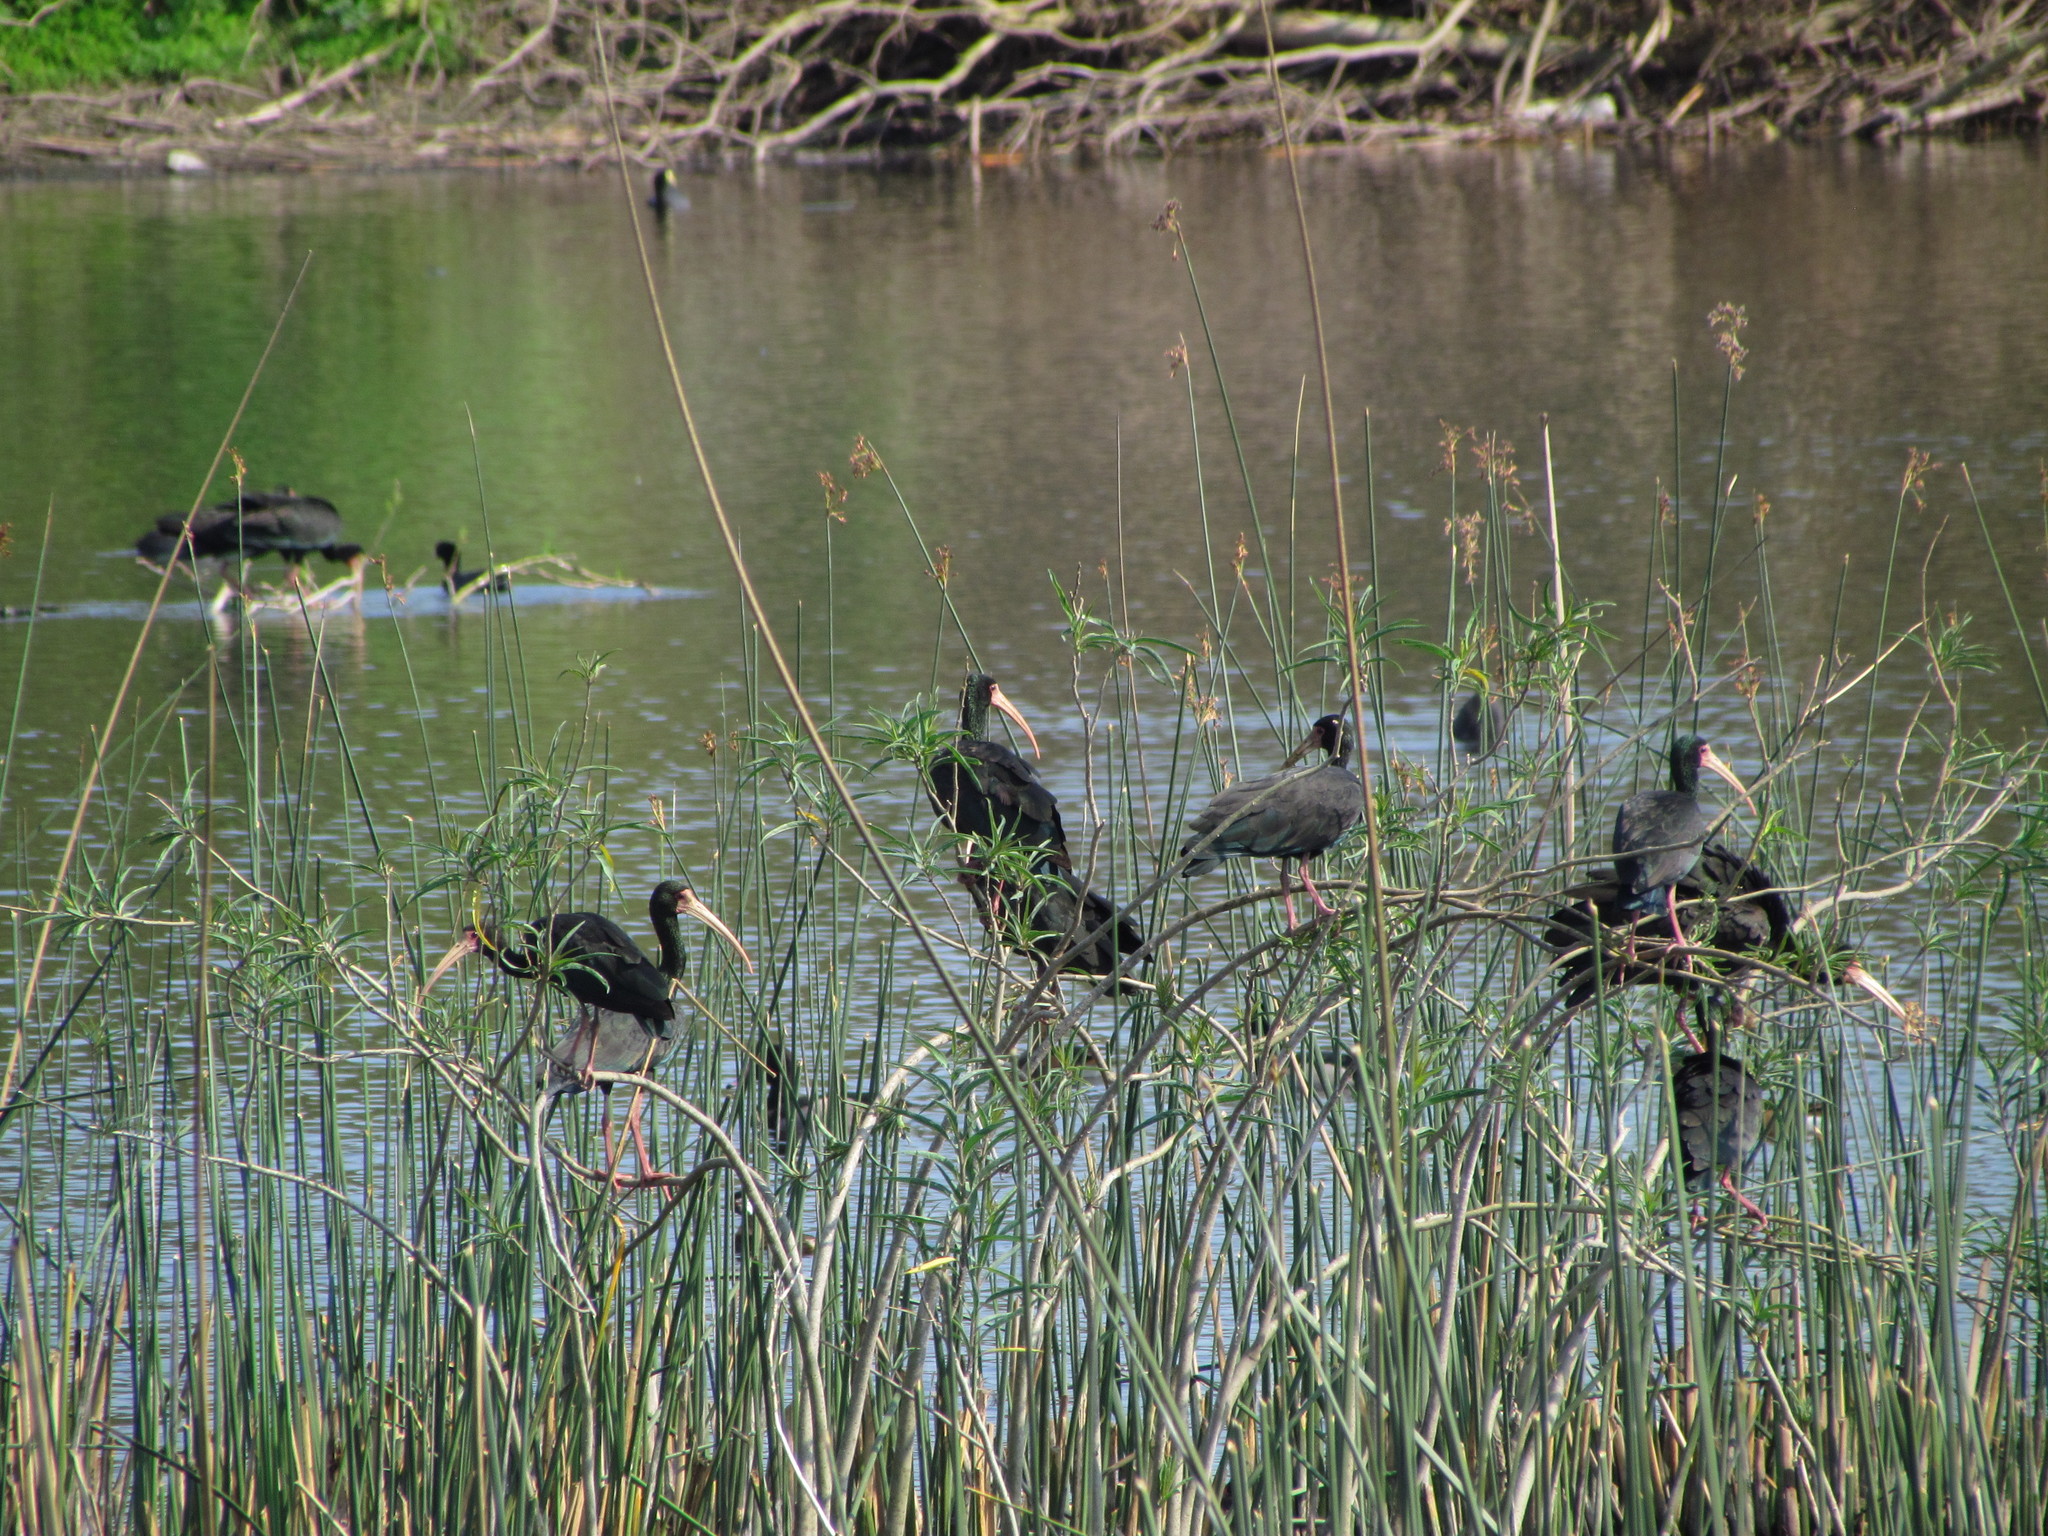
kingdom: Animalia
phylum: Chordata
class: Aves
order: Pelecaniformes
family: Threskiornithidae
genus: Phimosus
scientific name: Phimosus infuscatus
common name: Bare-faced ibis
